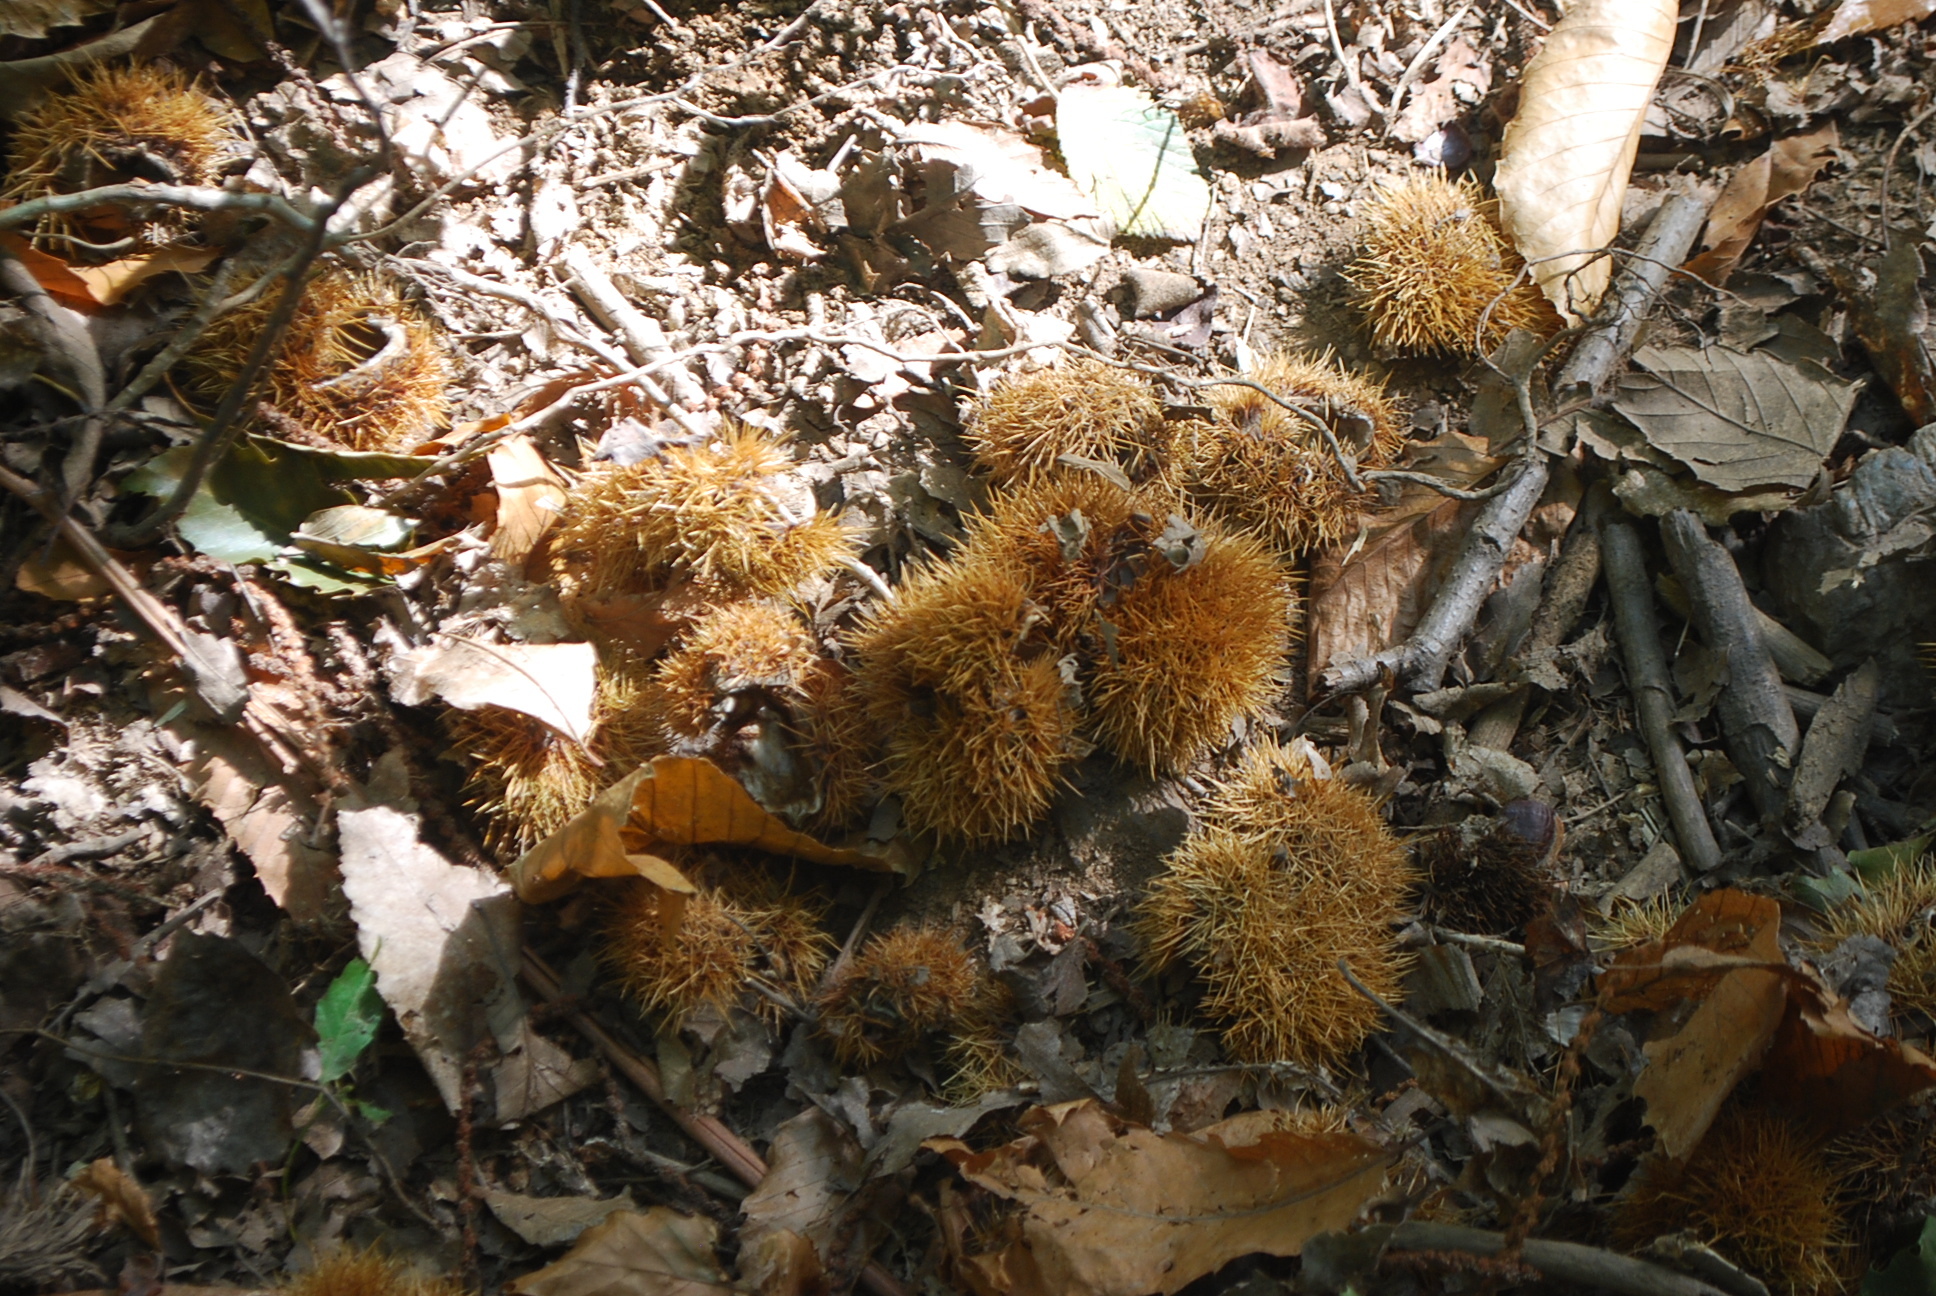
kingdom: Plantae
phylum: Tracheophyta
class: Magnoliopsida
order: Fagales
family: Fagaceae
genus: Castanea
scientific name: Castanea sativa
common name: Sweet chestnut
